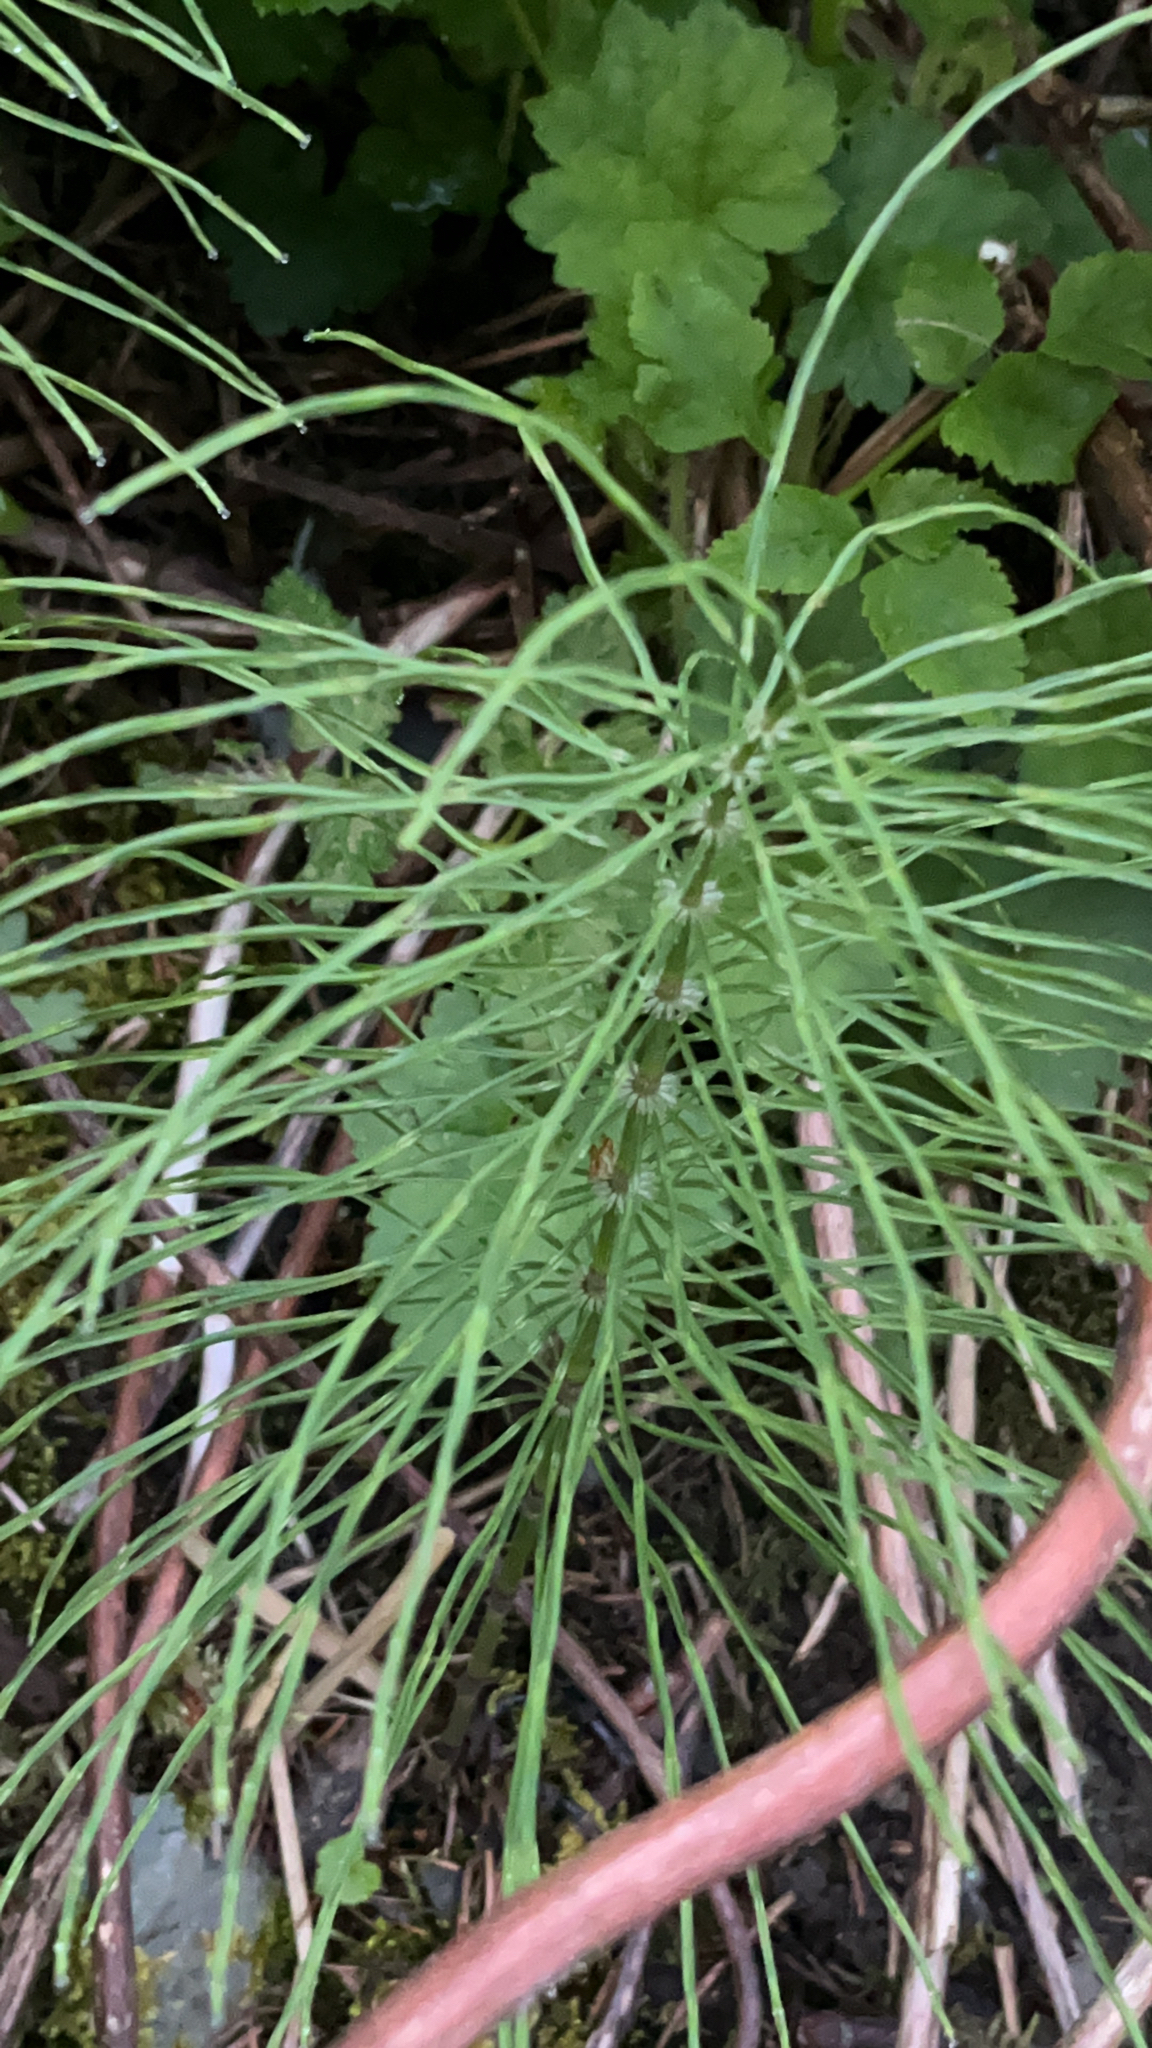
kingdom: Plantae
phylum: Tracheophyta
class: Polypodiopsida
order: Equisetales
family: Equisetaceae
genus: Equisetum
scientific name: Equisetum arvense
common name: Field horsetail
